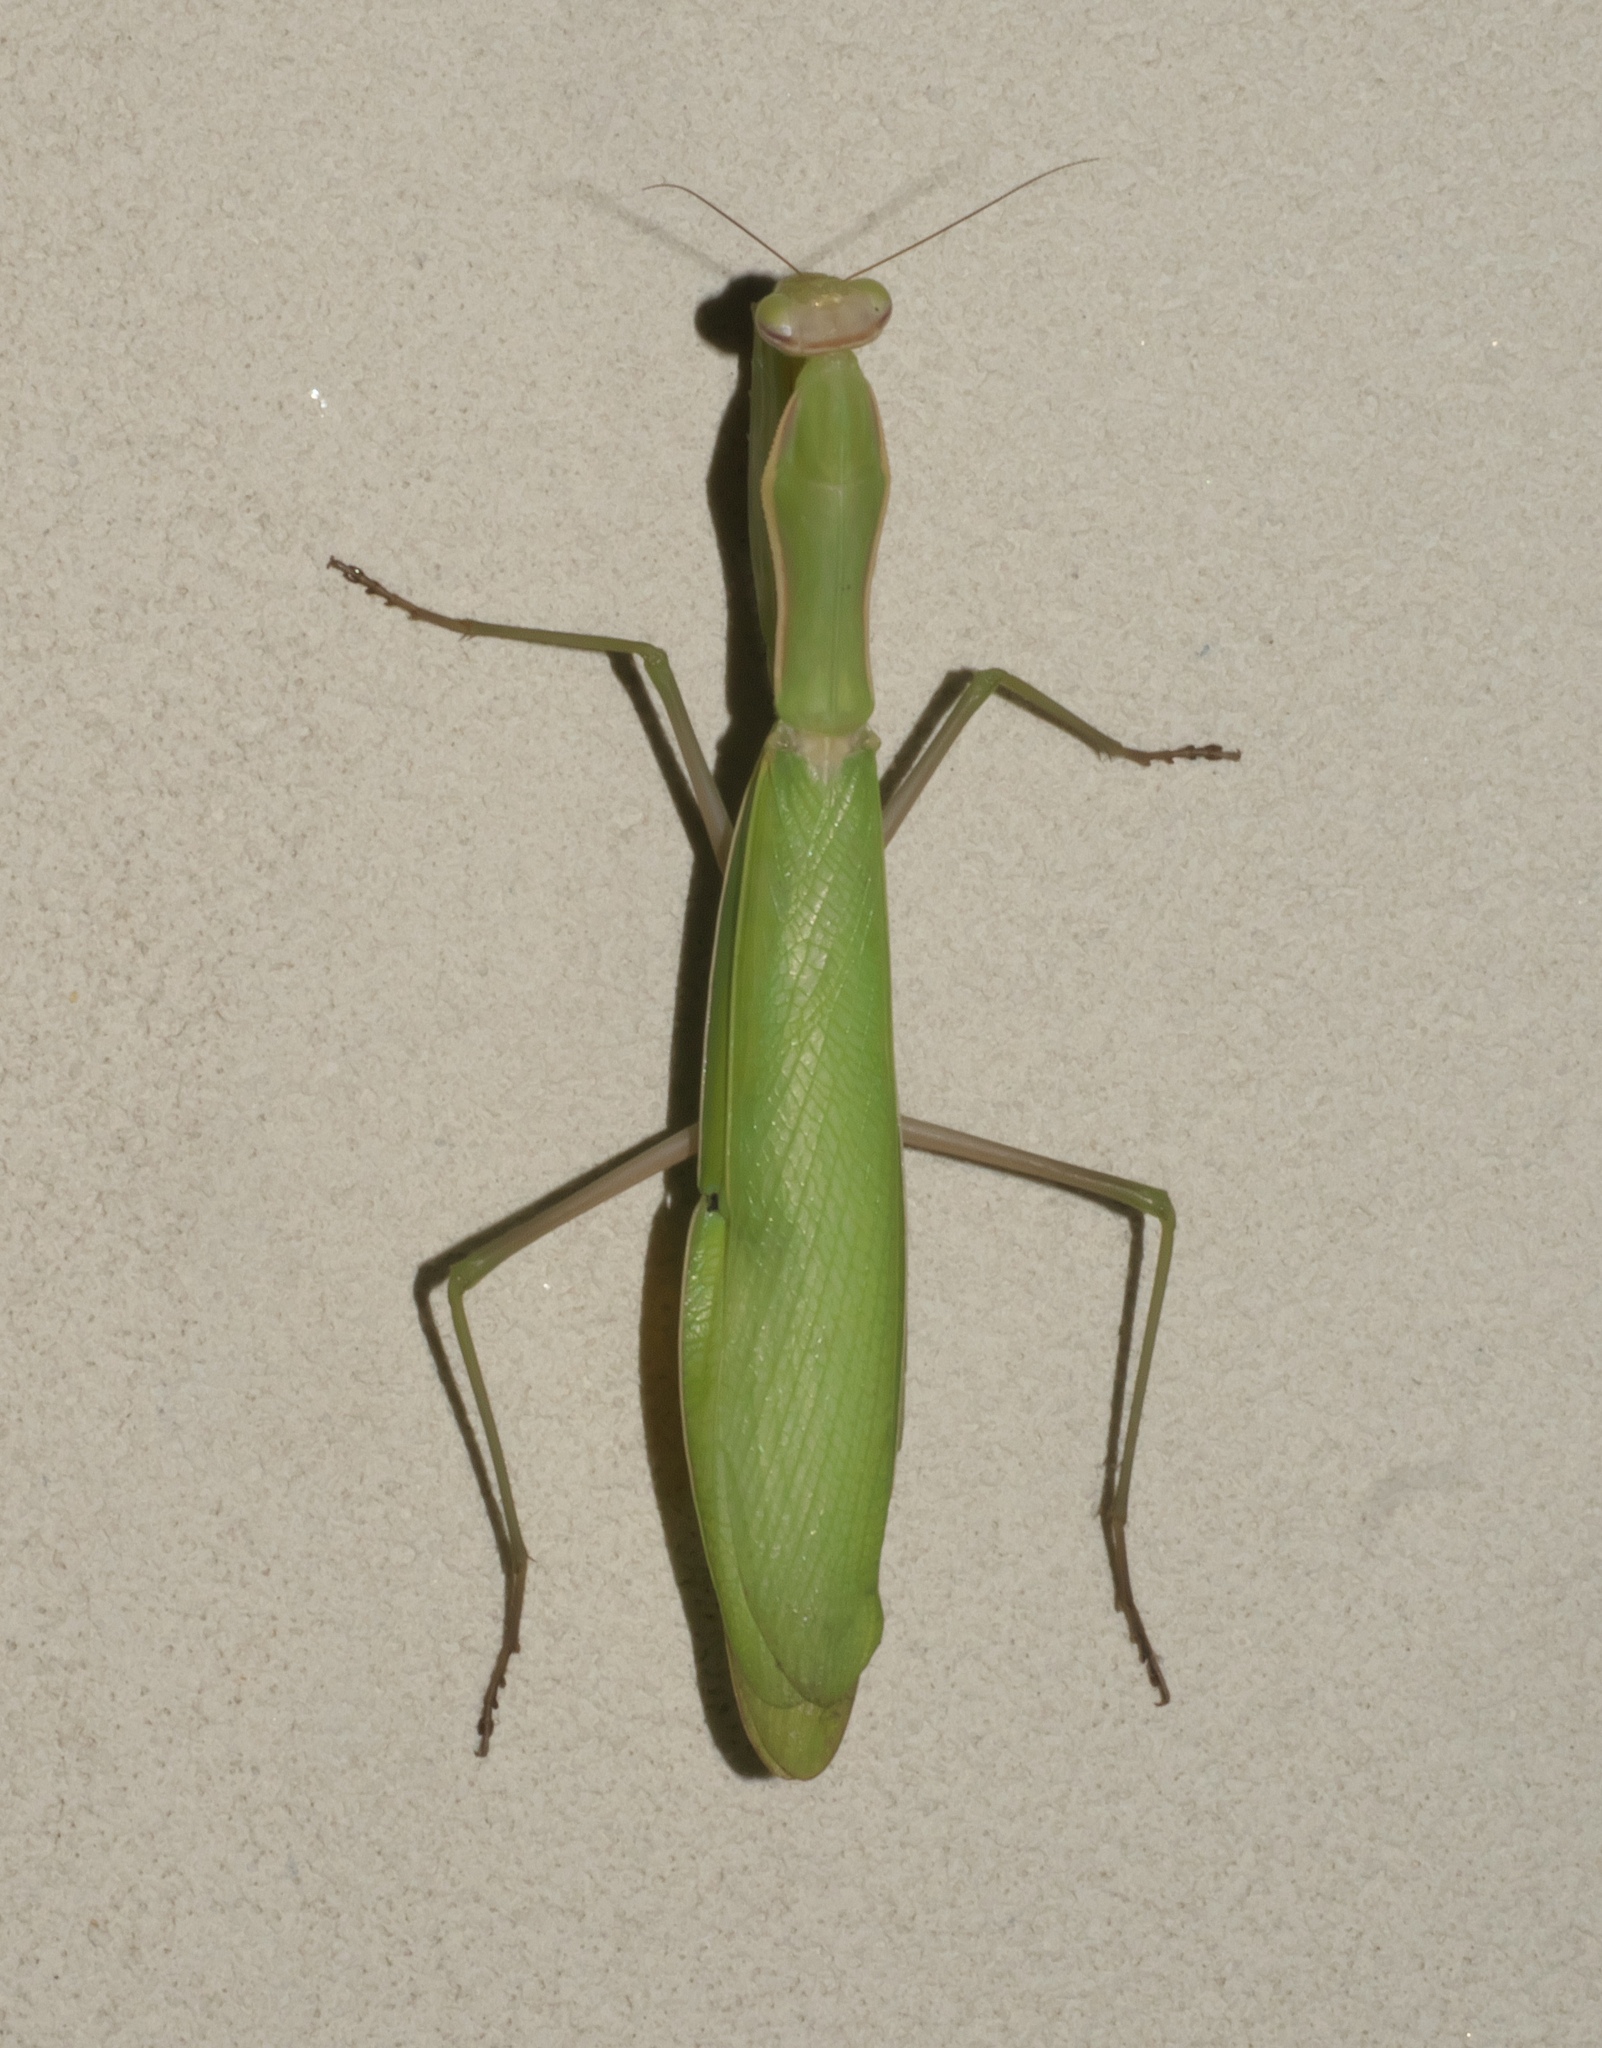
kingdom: Animalia
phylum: Arthropoda
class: Insecta
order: Mantodea
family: Mantidae
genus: Mantis
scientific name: Mantis religiosa
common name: Praying mantis
